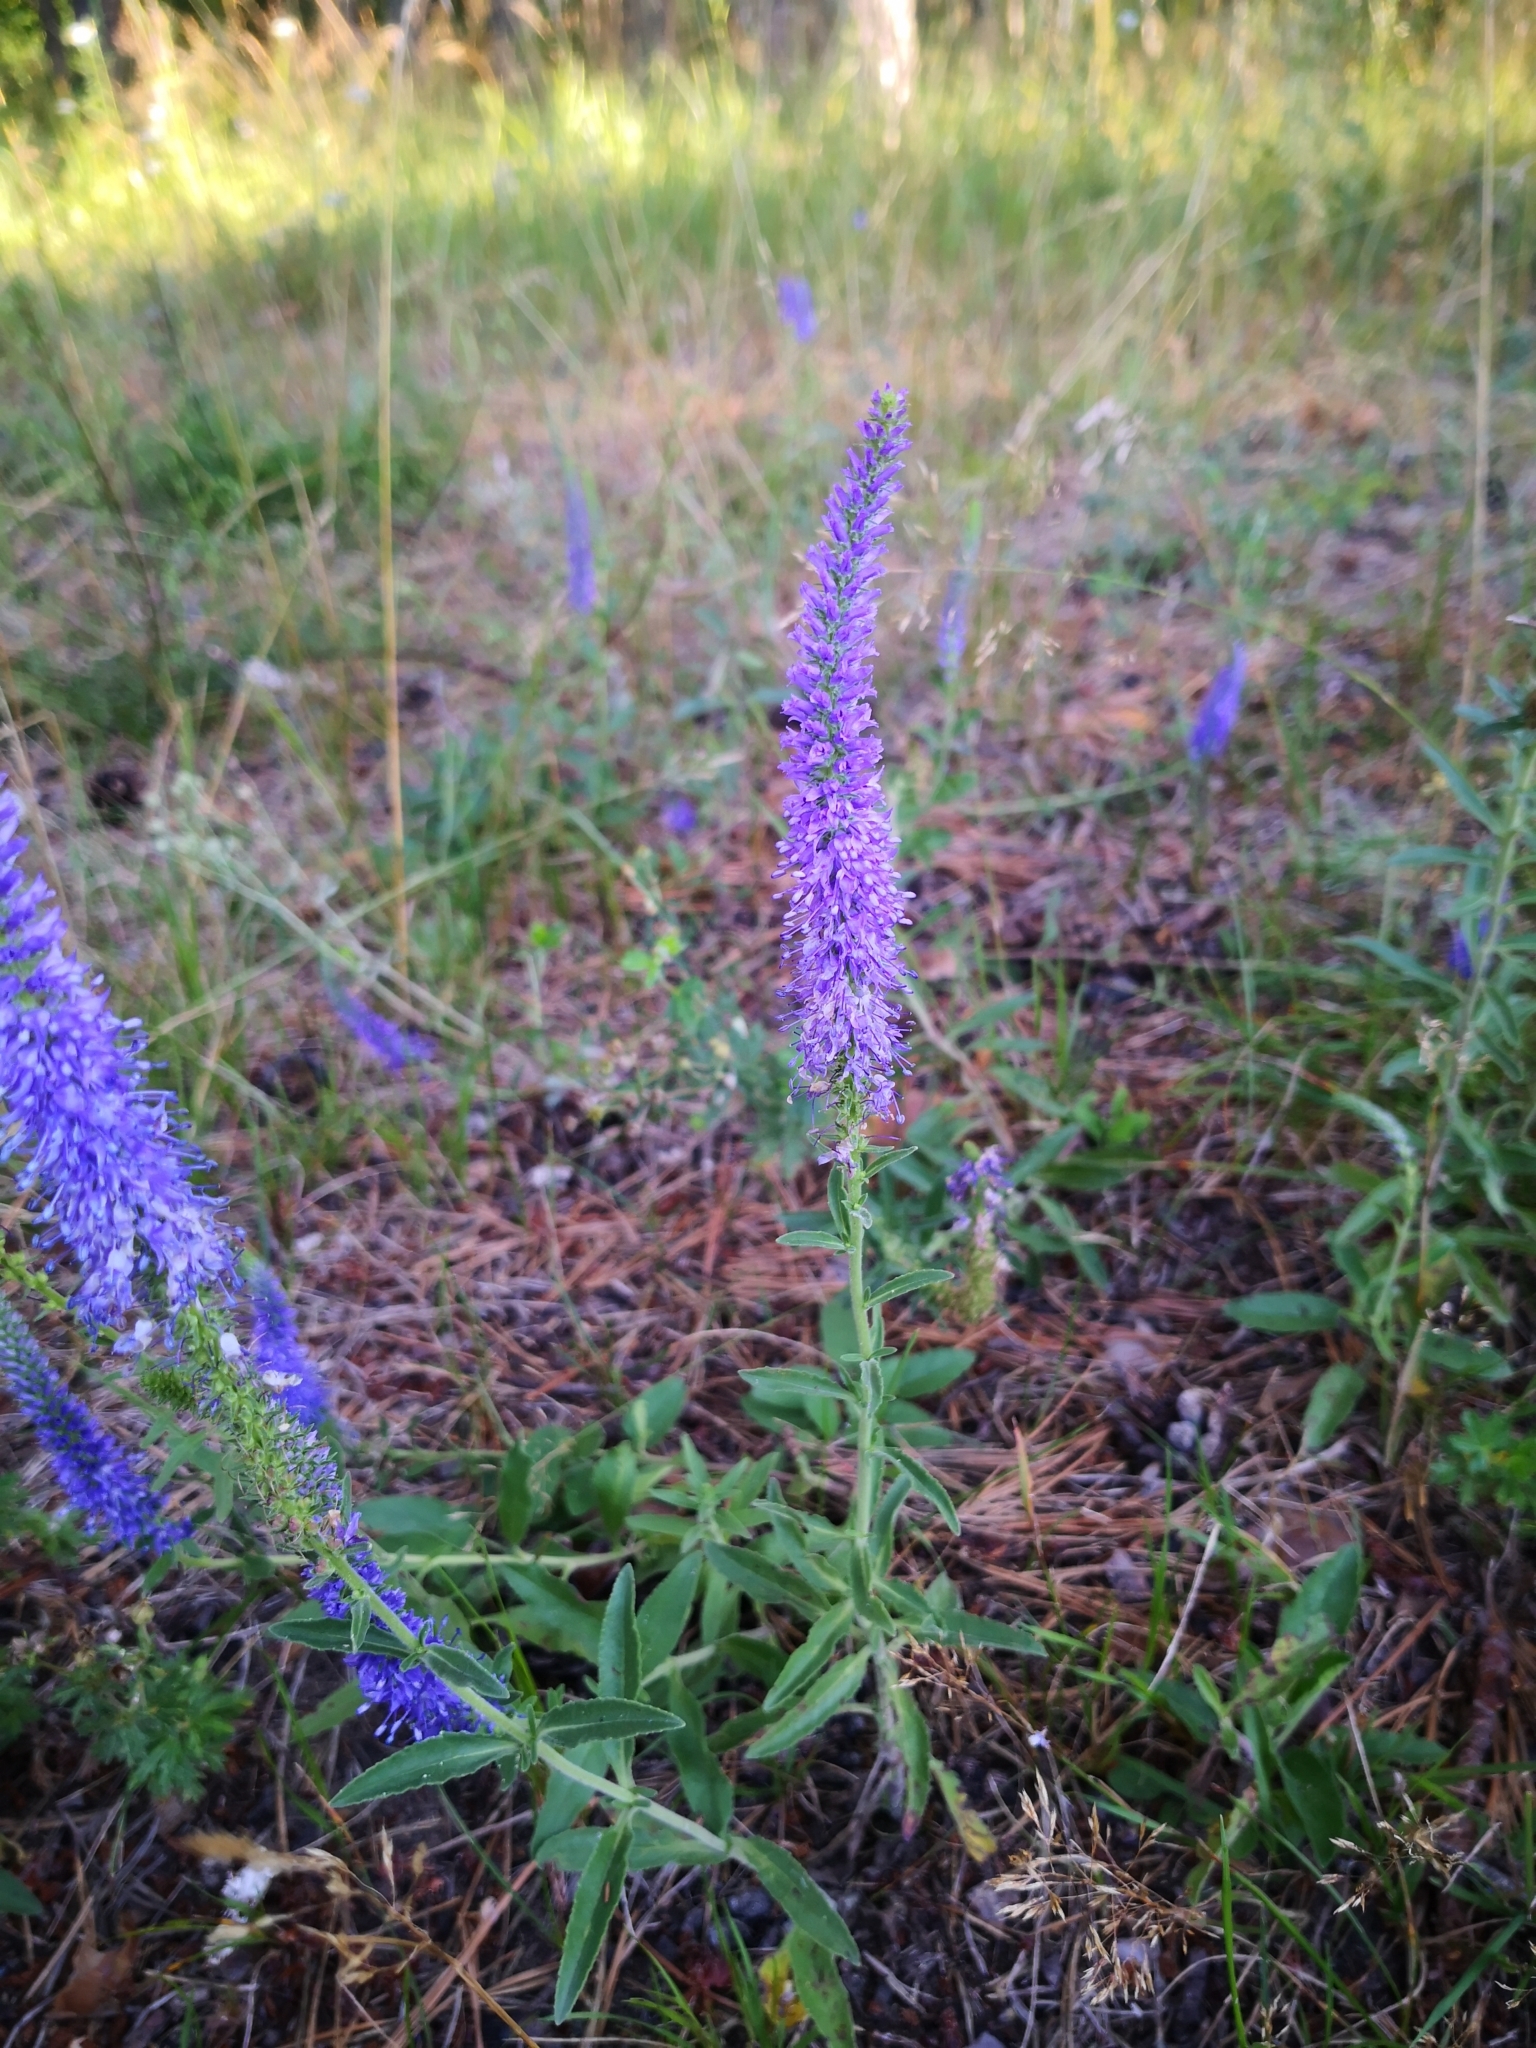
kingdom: Plantae
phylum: Tracheophyta
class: Magnoliopsida
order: Lamiales
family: Plantaginaceae
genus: Veronica
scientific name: Veronica spicata
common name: Spiked speedwell
